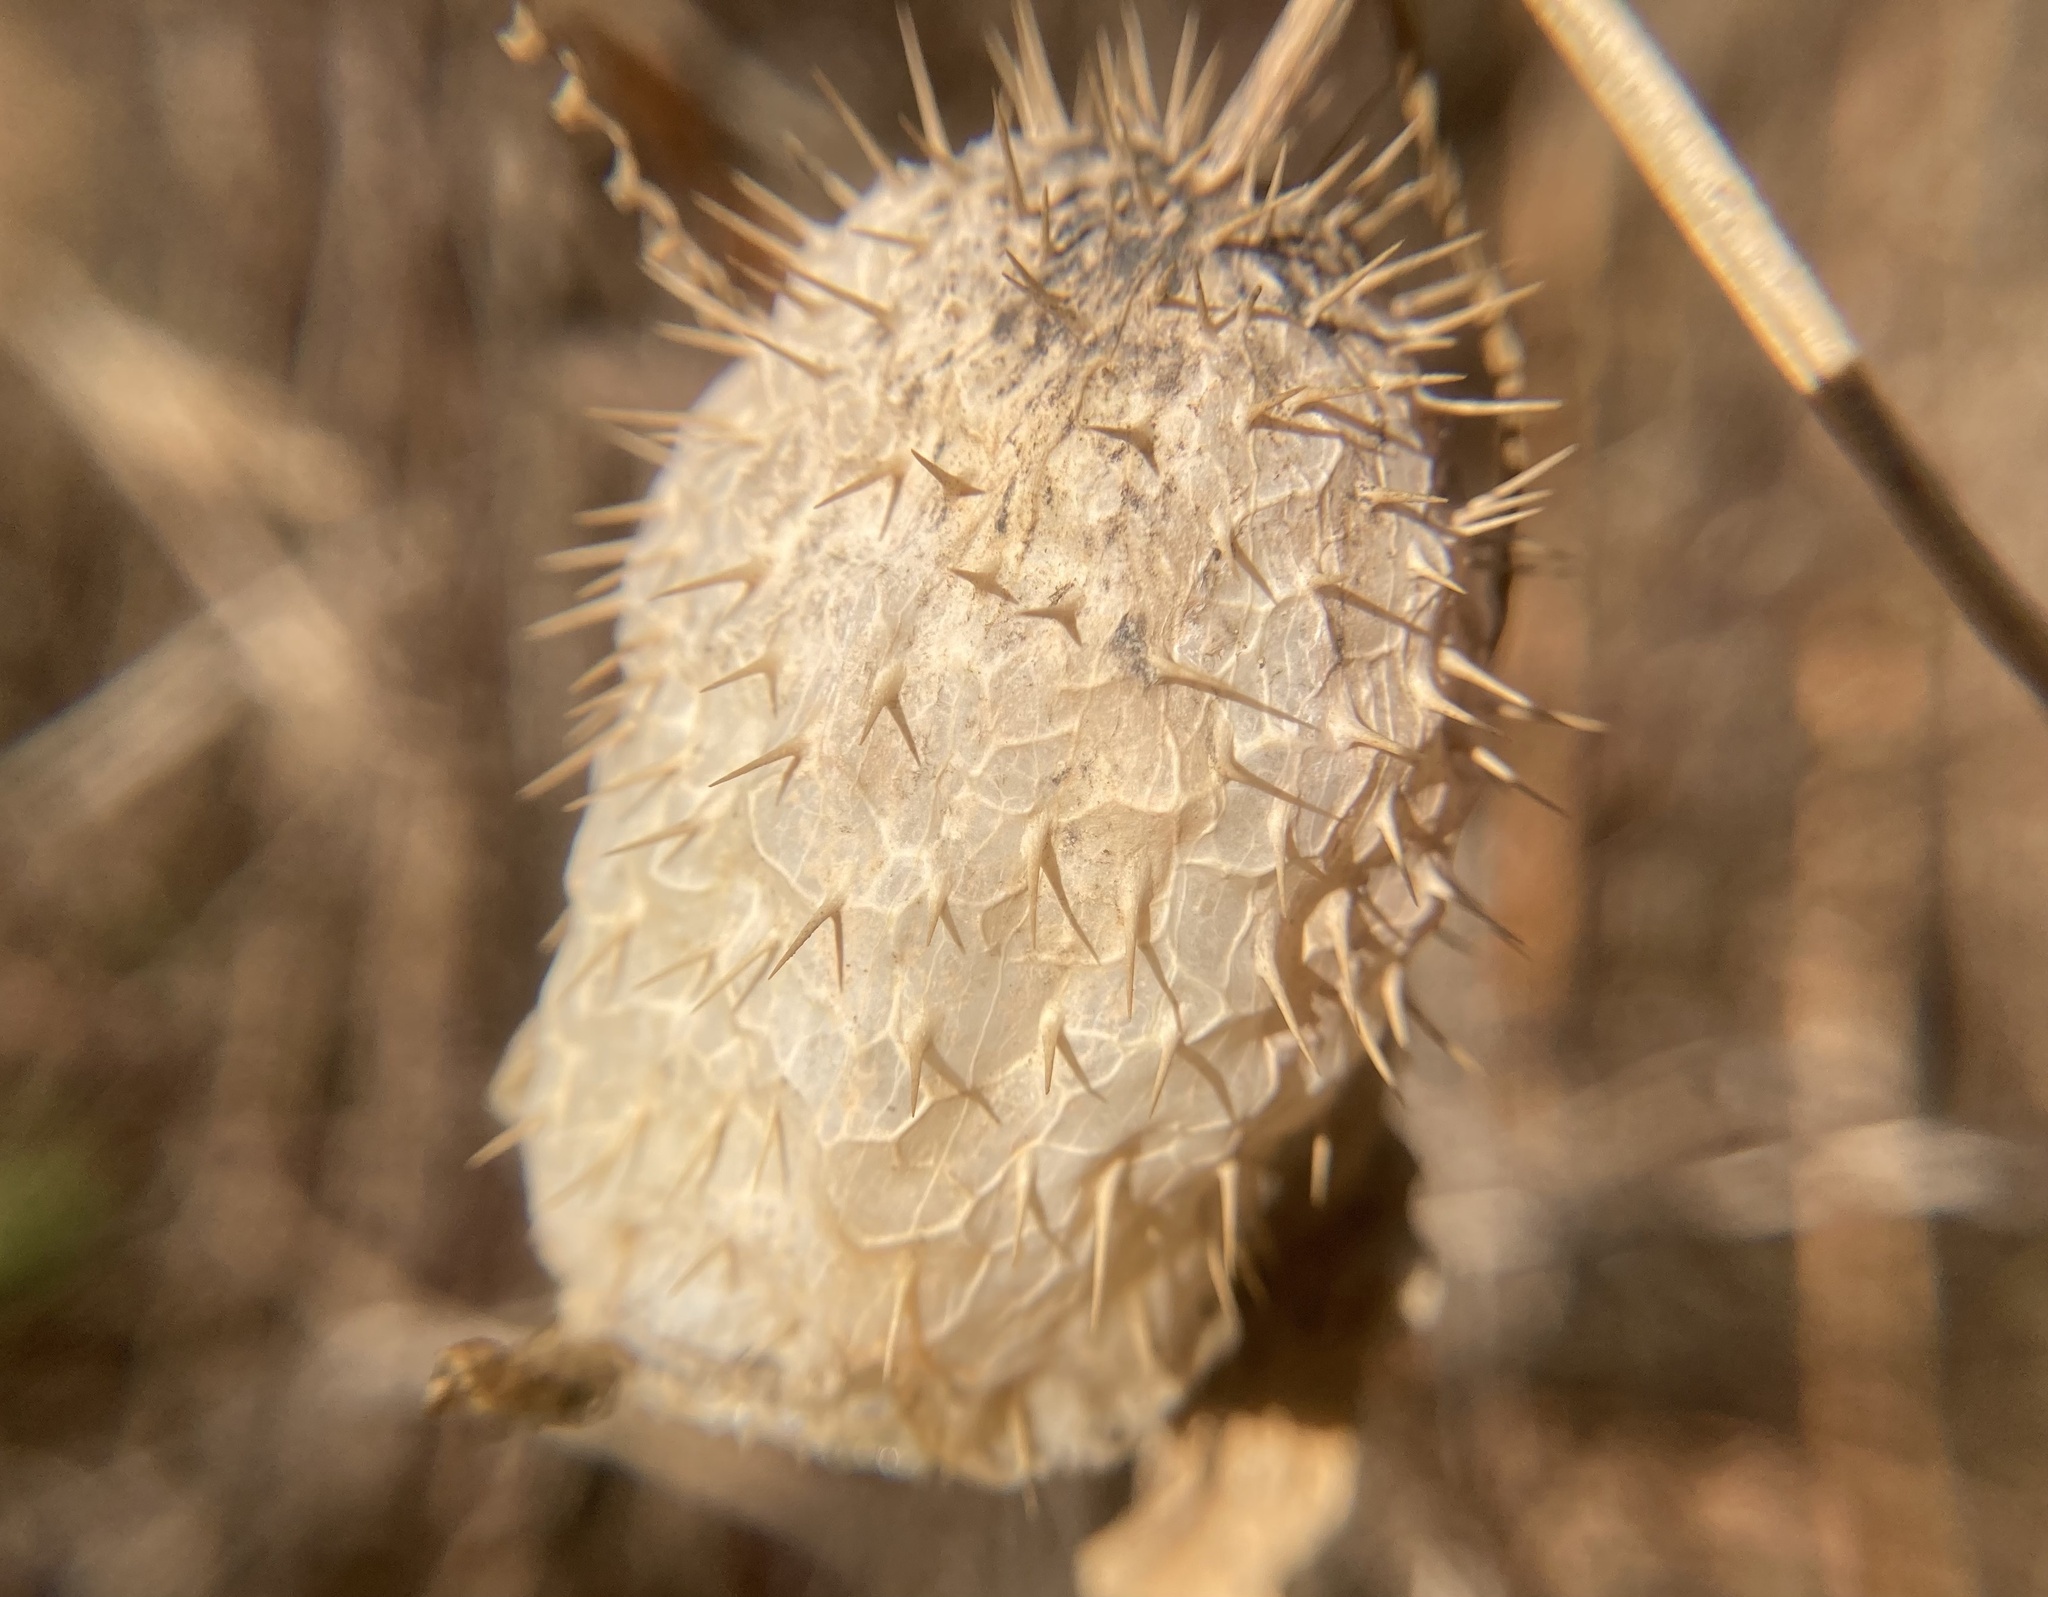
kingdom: Plantae
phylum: Tracheophyta
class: Magnoliopsida
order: Cucurbitales
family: Cucurbitaceae
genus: Echinocystis
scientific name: Echinocystis lobata
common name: Wild cucumber
